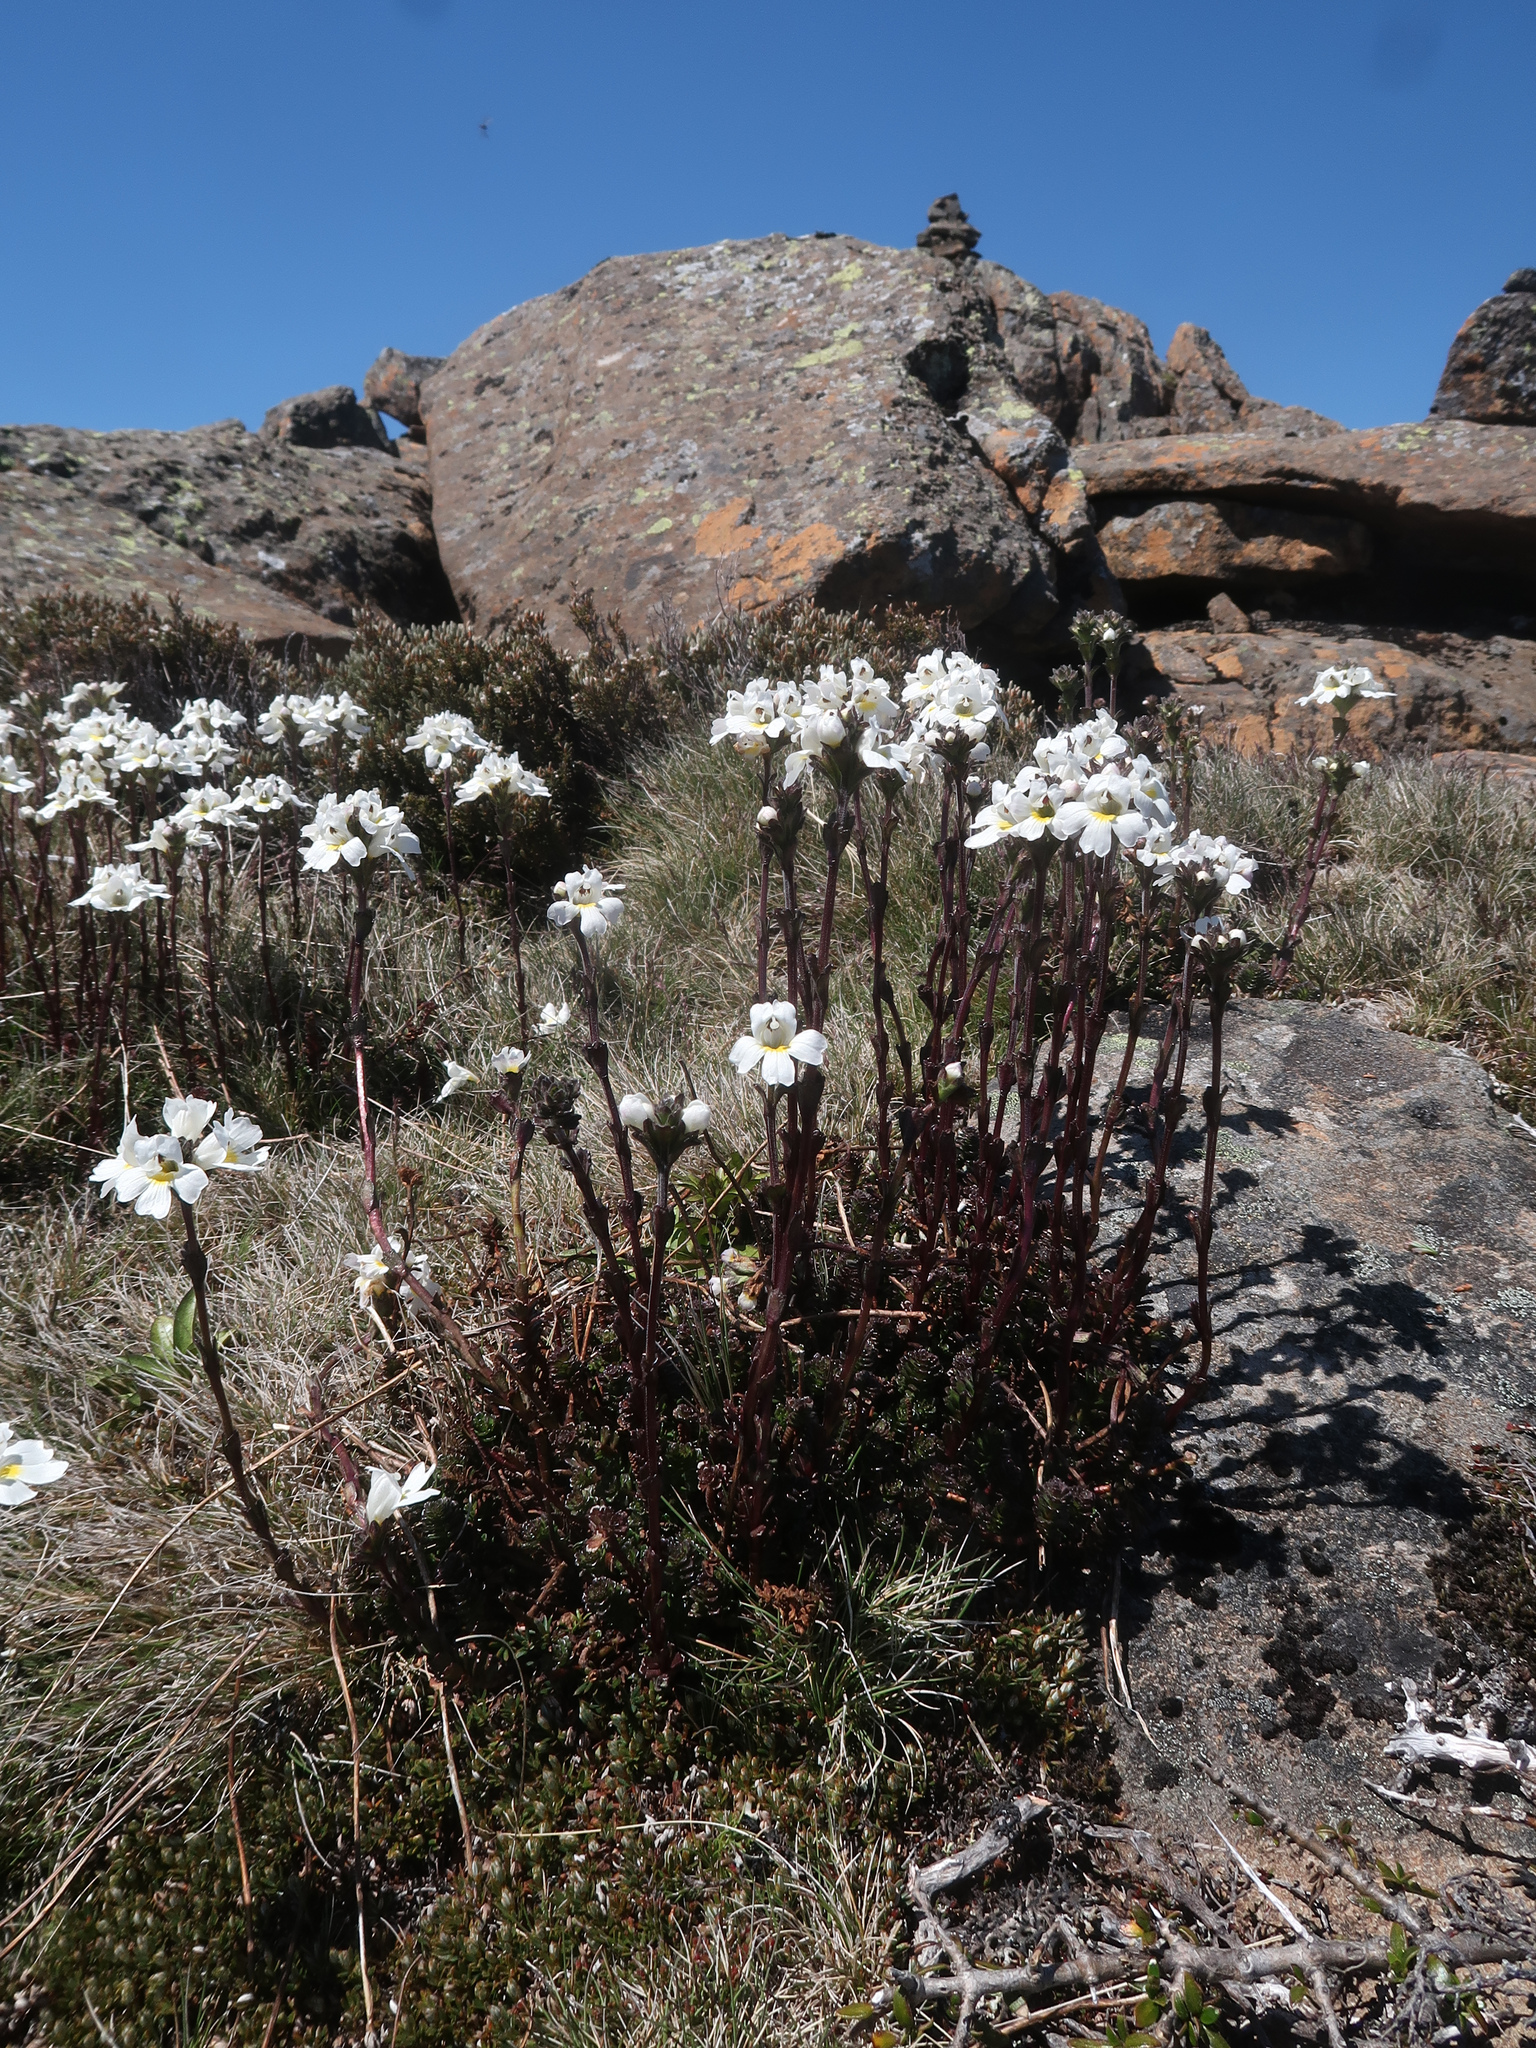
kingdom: Plantae
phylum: Tracheophyta
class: Magnoliopsida
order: Lamiales
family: Orobanchaceae
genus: Euphrasia
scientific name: Euphrasia collina
